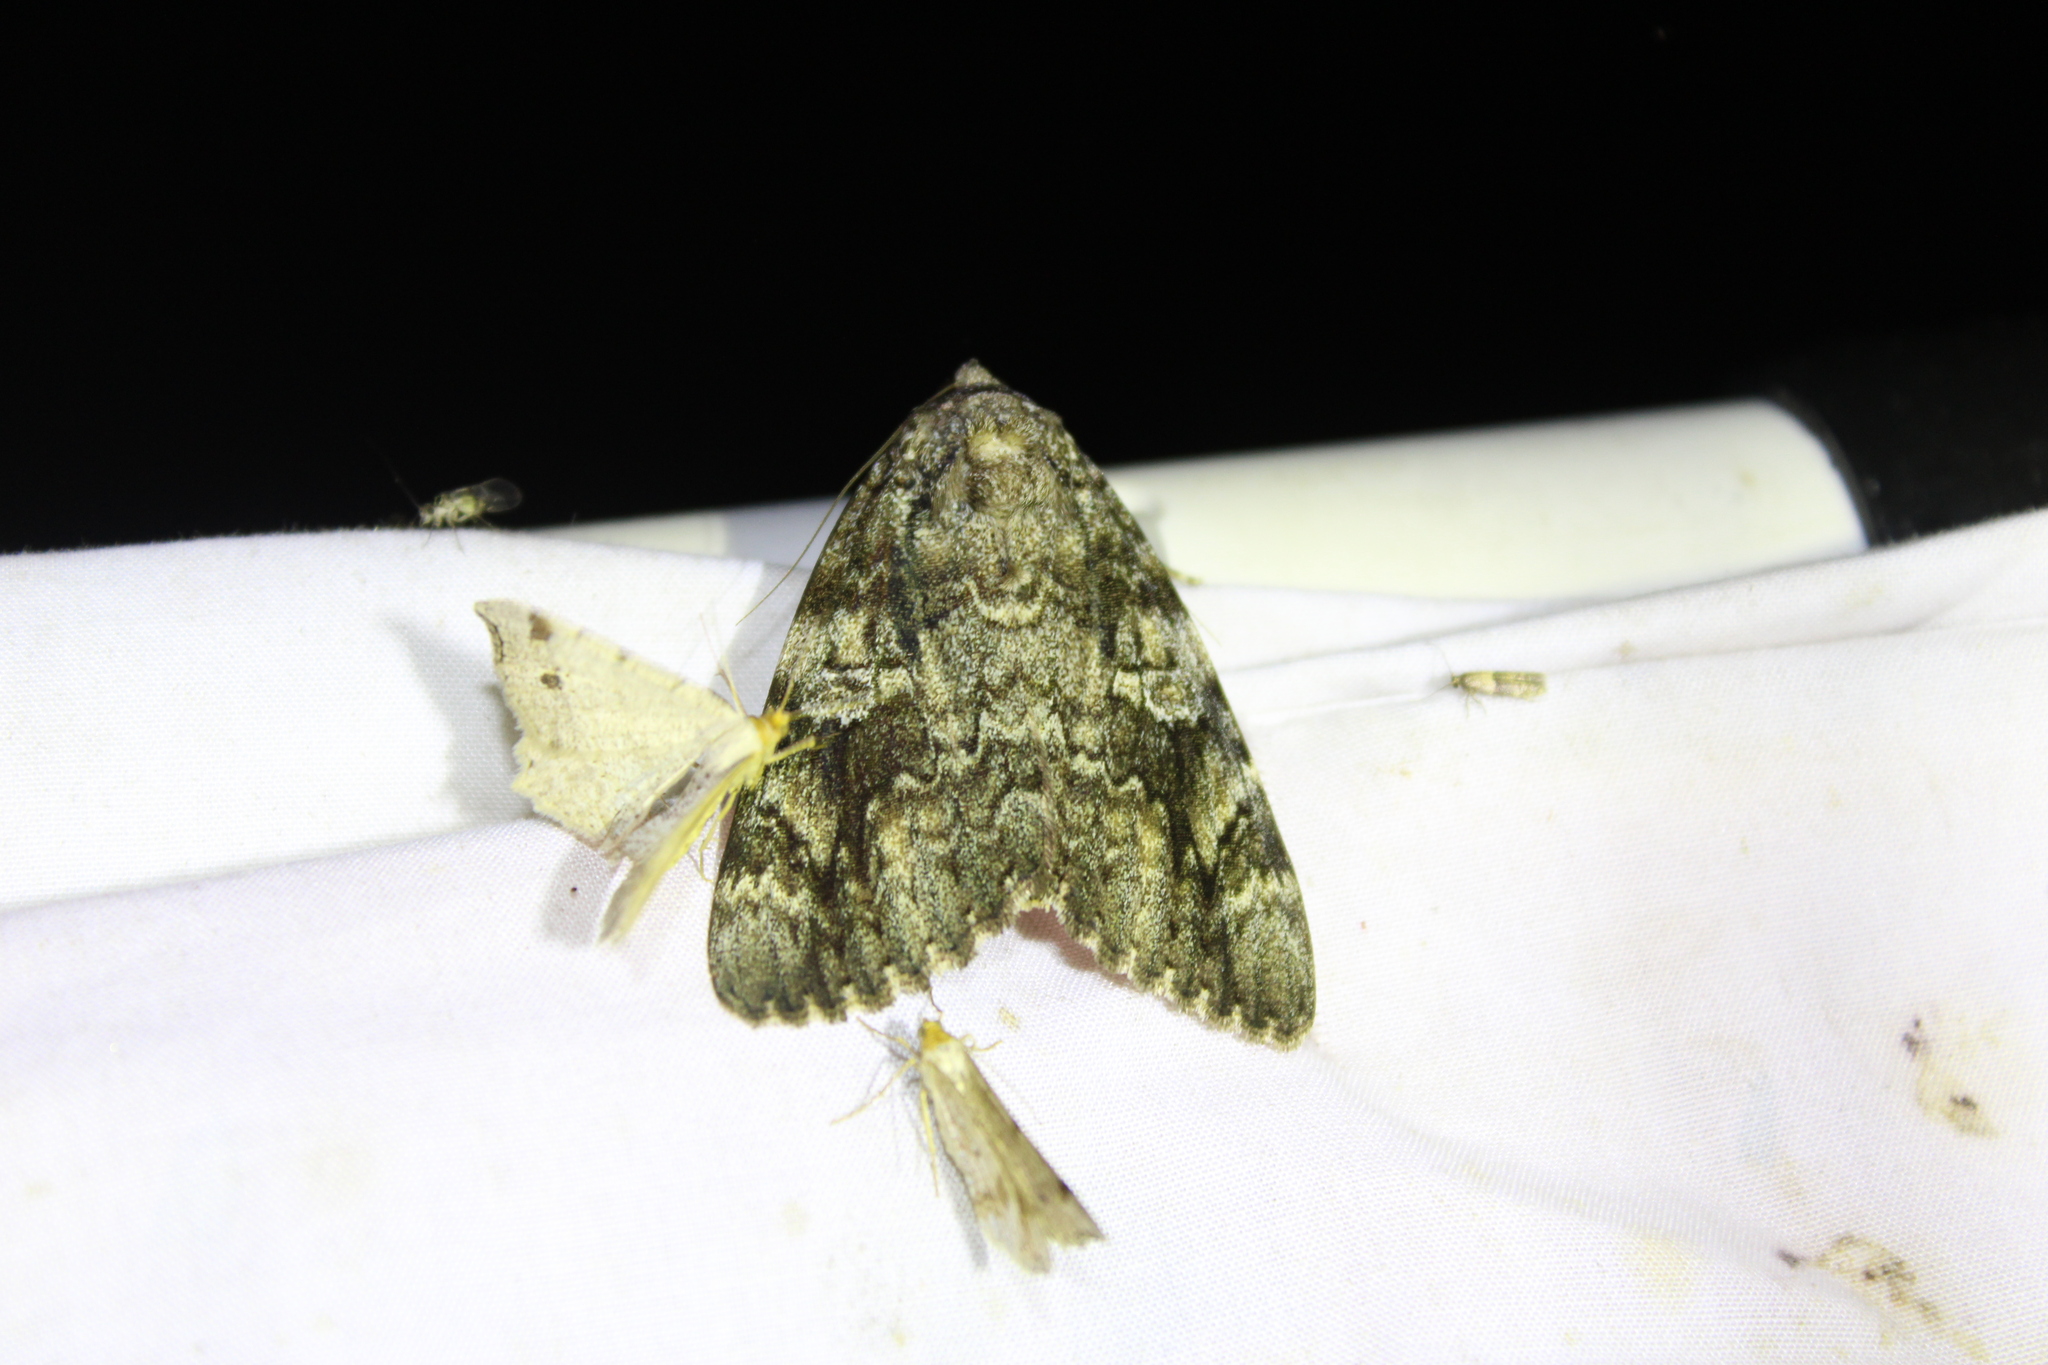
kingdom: Animalia
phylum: Arthropoda
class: Insecta
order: Lepidoptera
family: Erebidae
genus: Catocala
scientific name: Catocala ilia
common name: Ilia underwing
